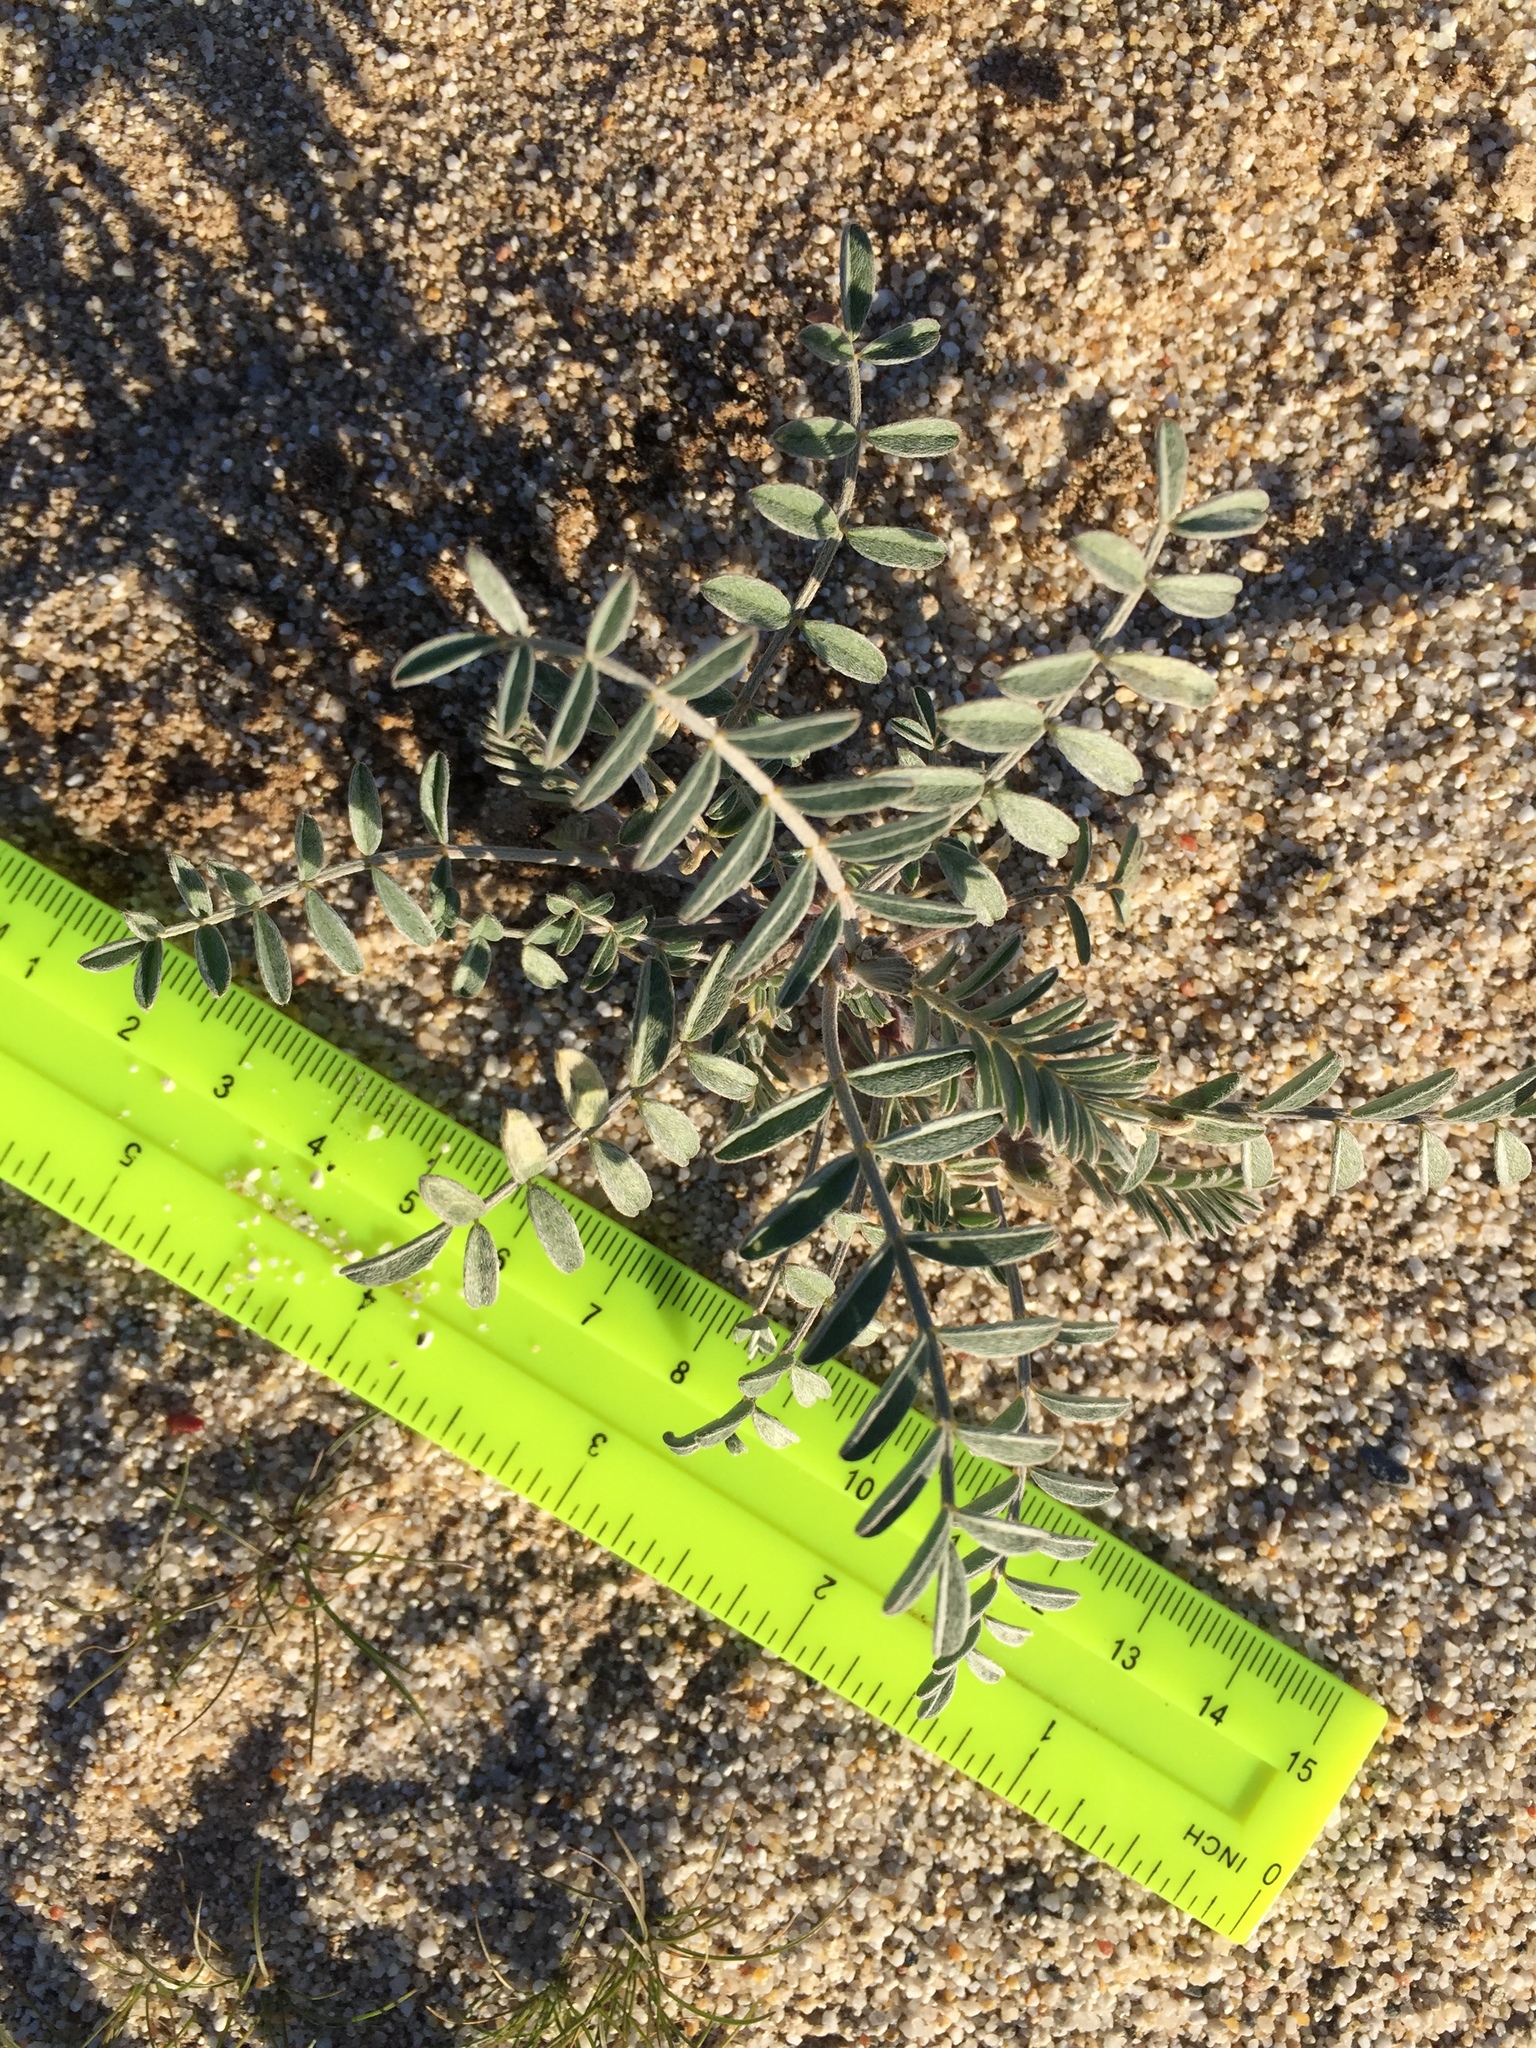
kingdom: Plantae
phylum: Tracheophyta
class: Magnoliopsida
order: Fabales
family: Fabaceae
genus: Astragalus
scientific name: Astragalus aridus
